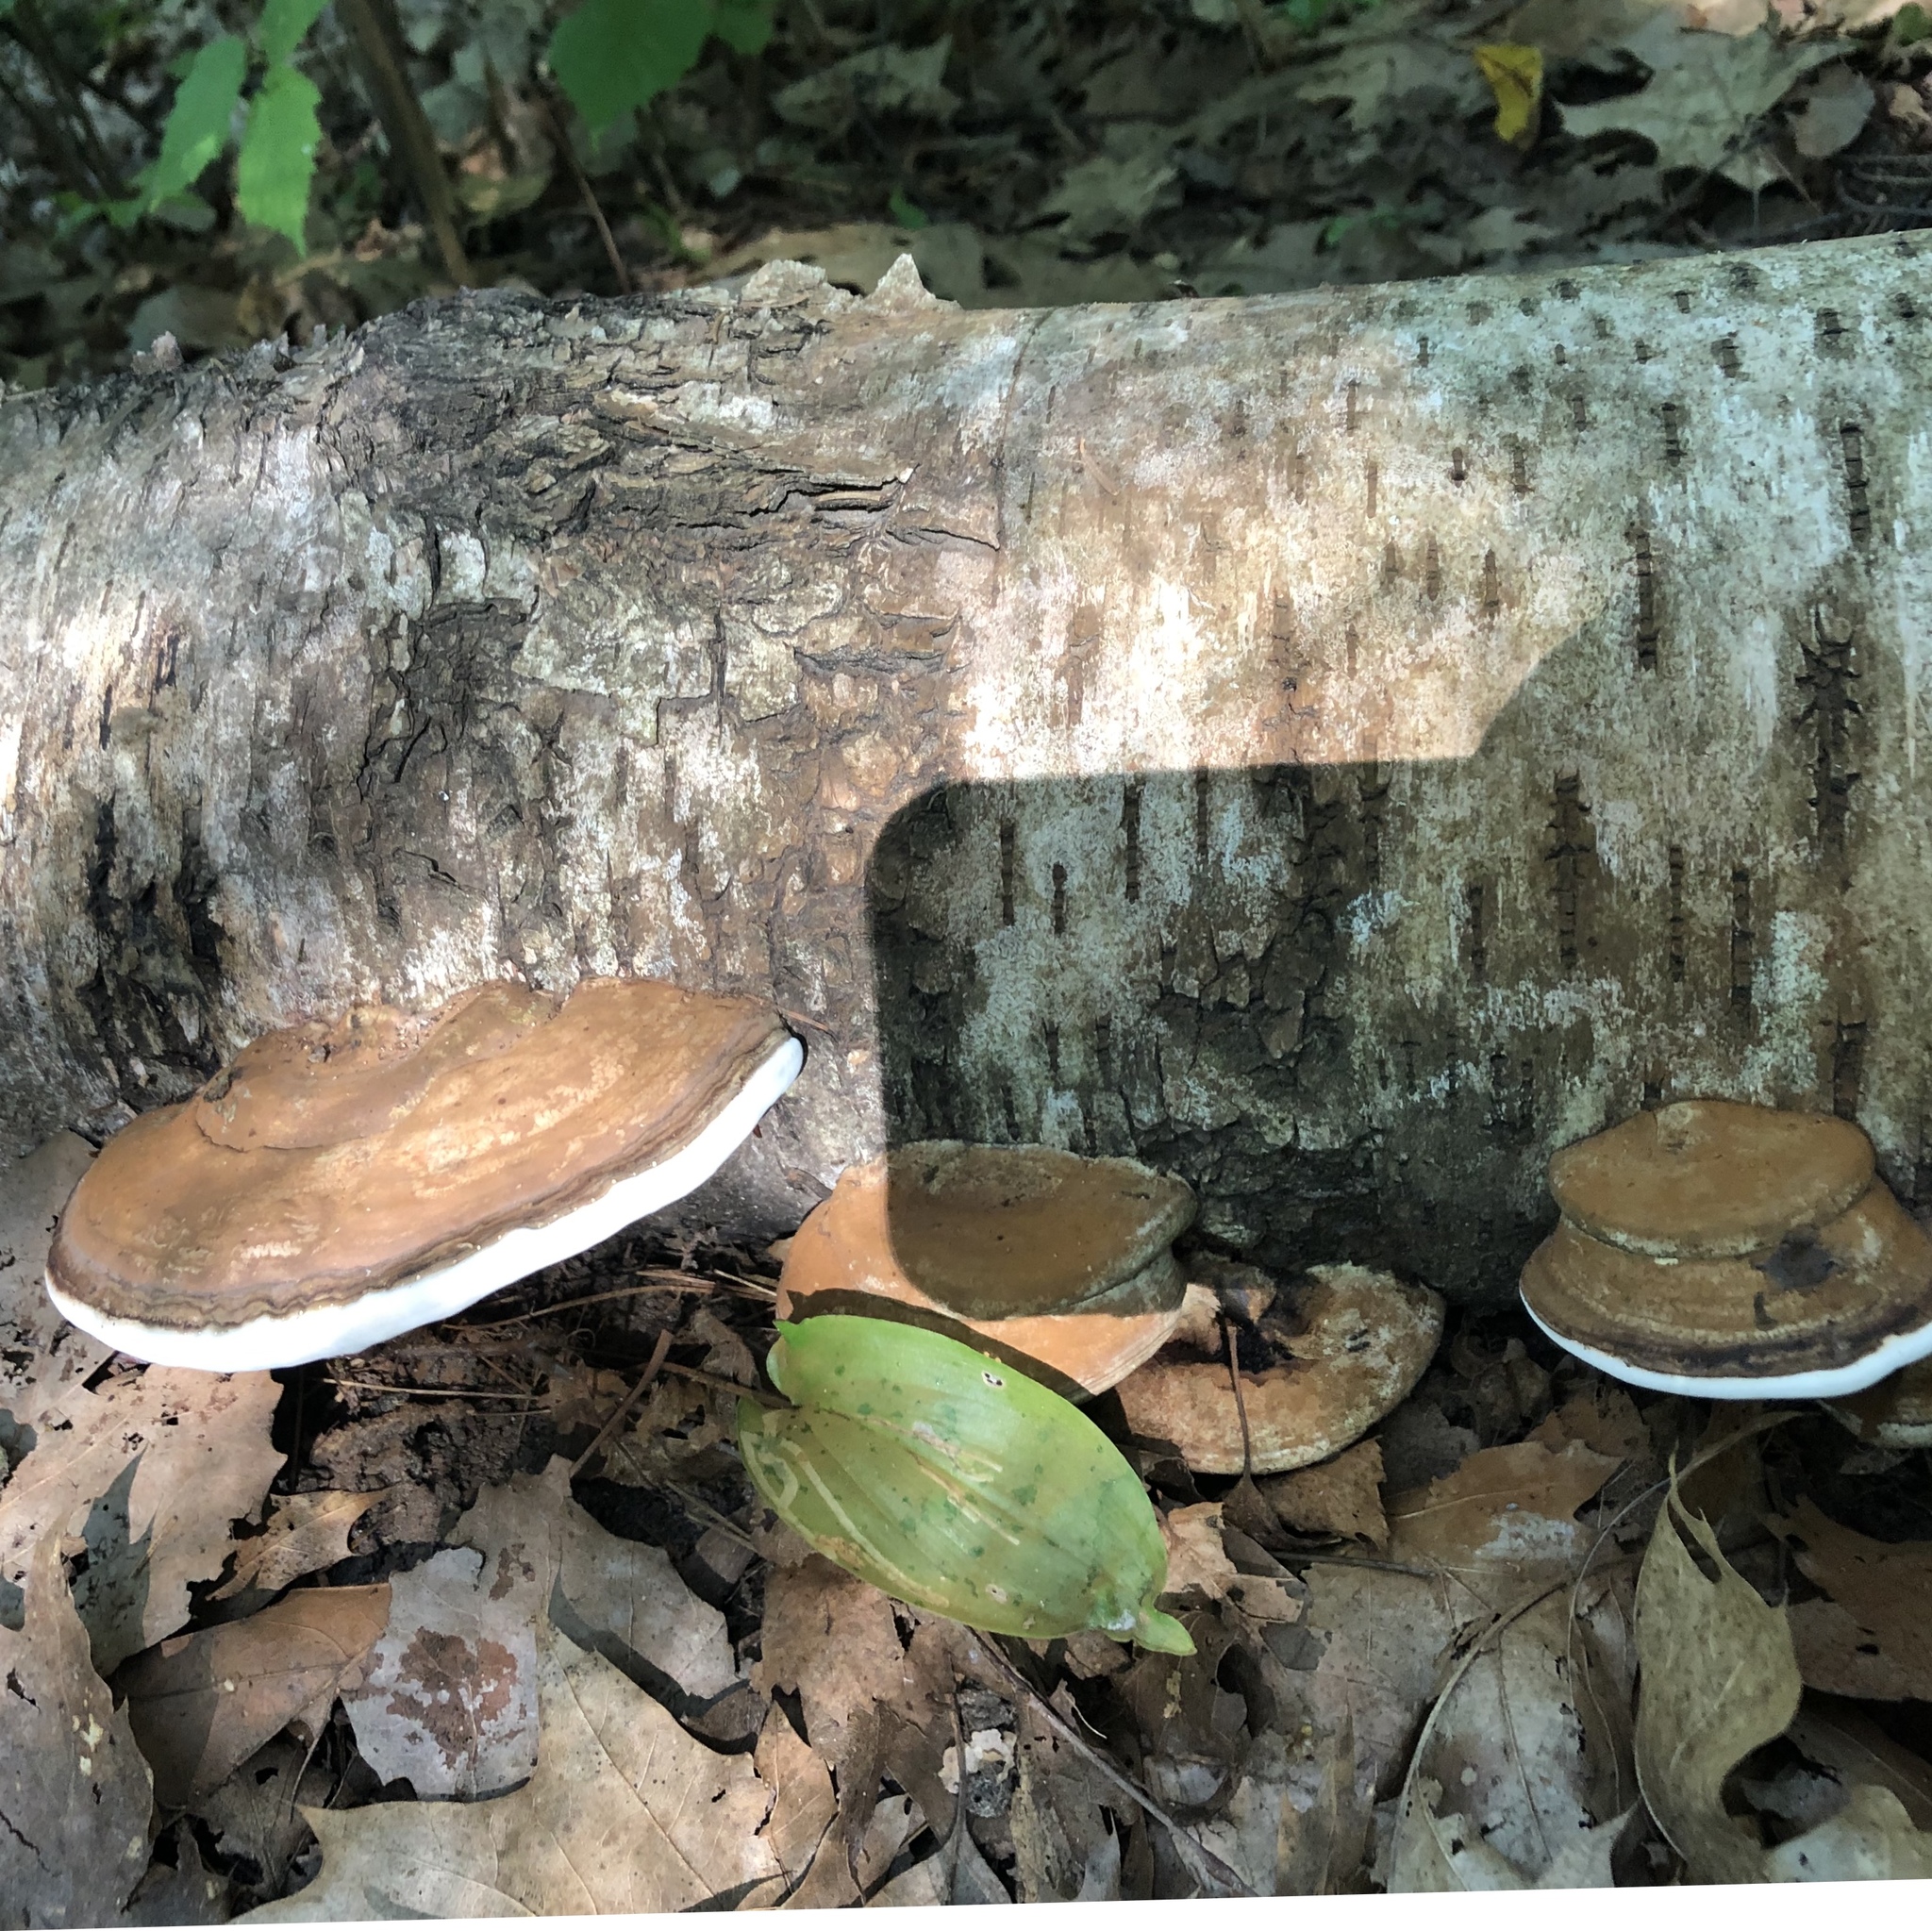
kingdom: Fungi
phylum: Basidiomycota
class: Agaricomycetes
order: Polyporales
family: Polyporaceae
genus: Ganoderma
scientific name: Ganoderma applanatum
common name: Artist's bracket
